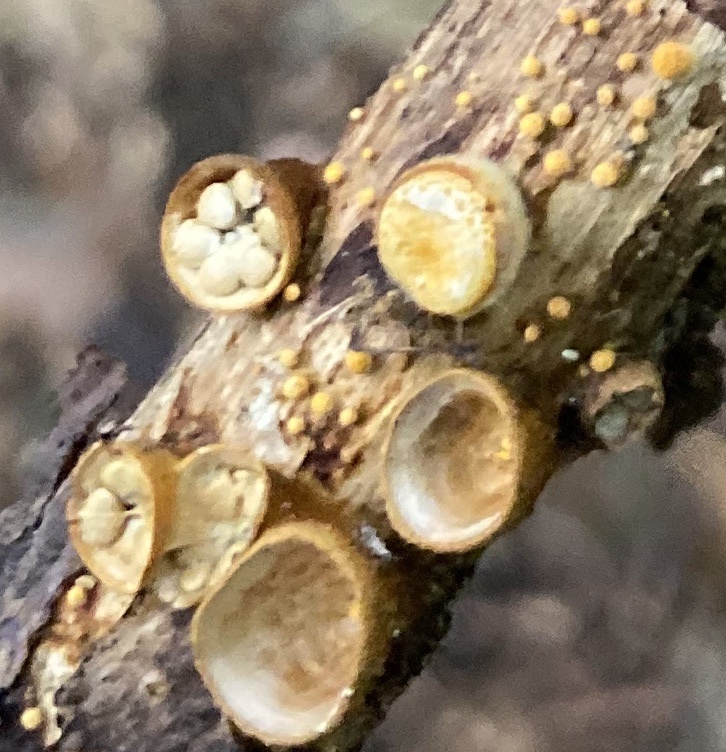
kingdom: Fungi
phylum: Basidiomycota
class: Agaricomycetes
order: Agaricales
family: Nidulariaceae
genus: Crucibulum
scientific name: Crucibulum laeve
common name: Common bird's nest
